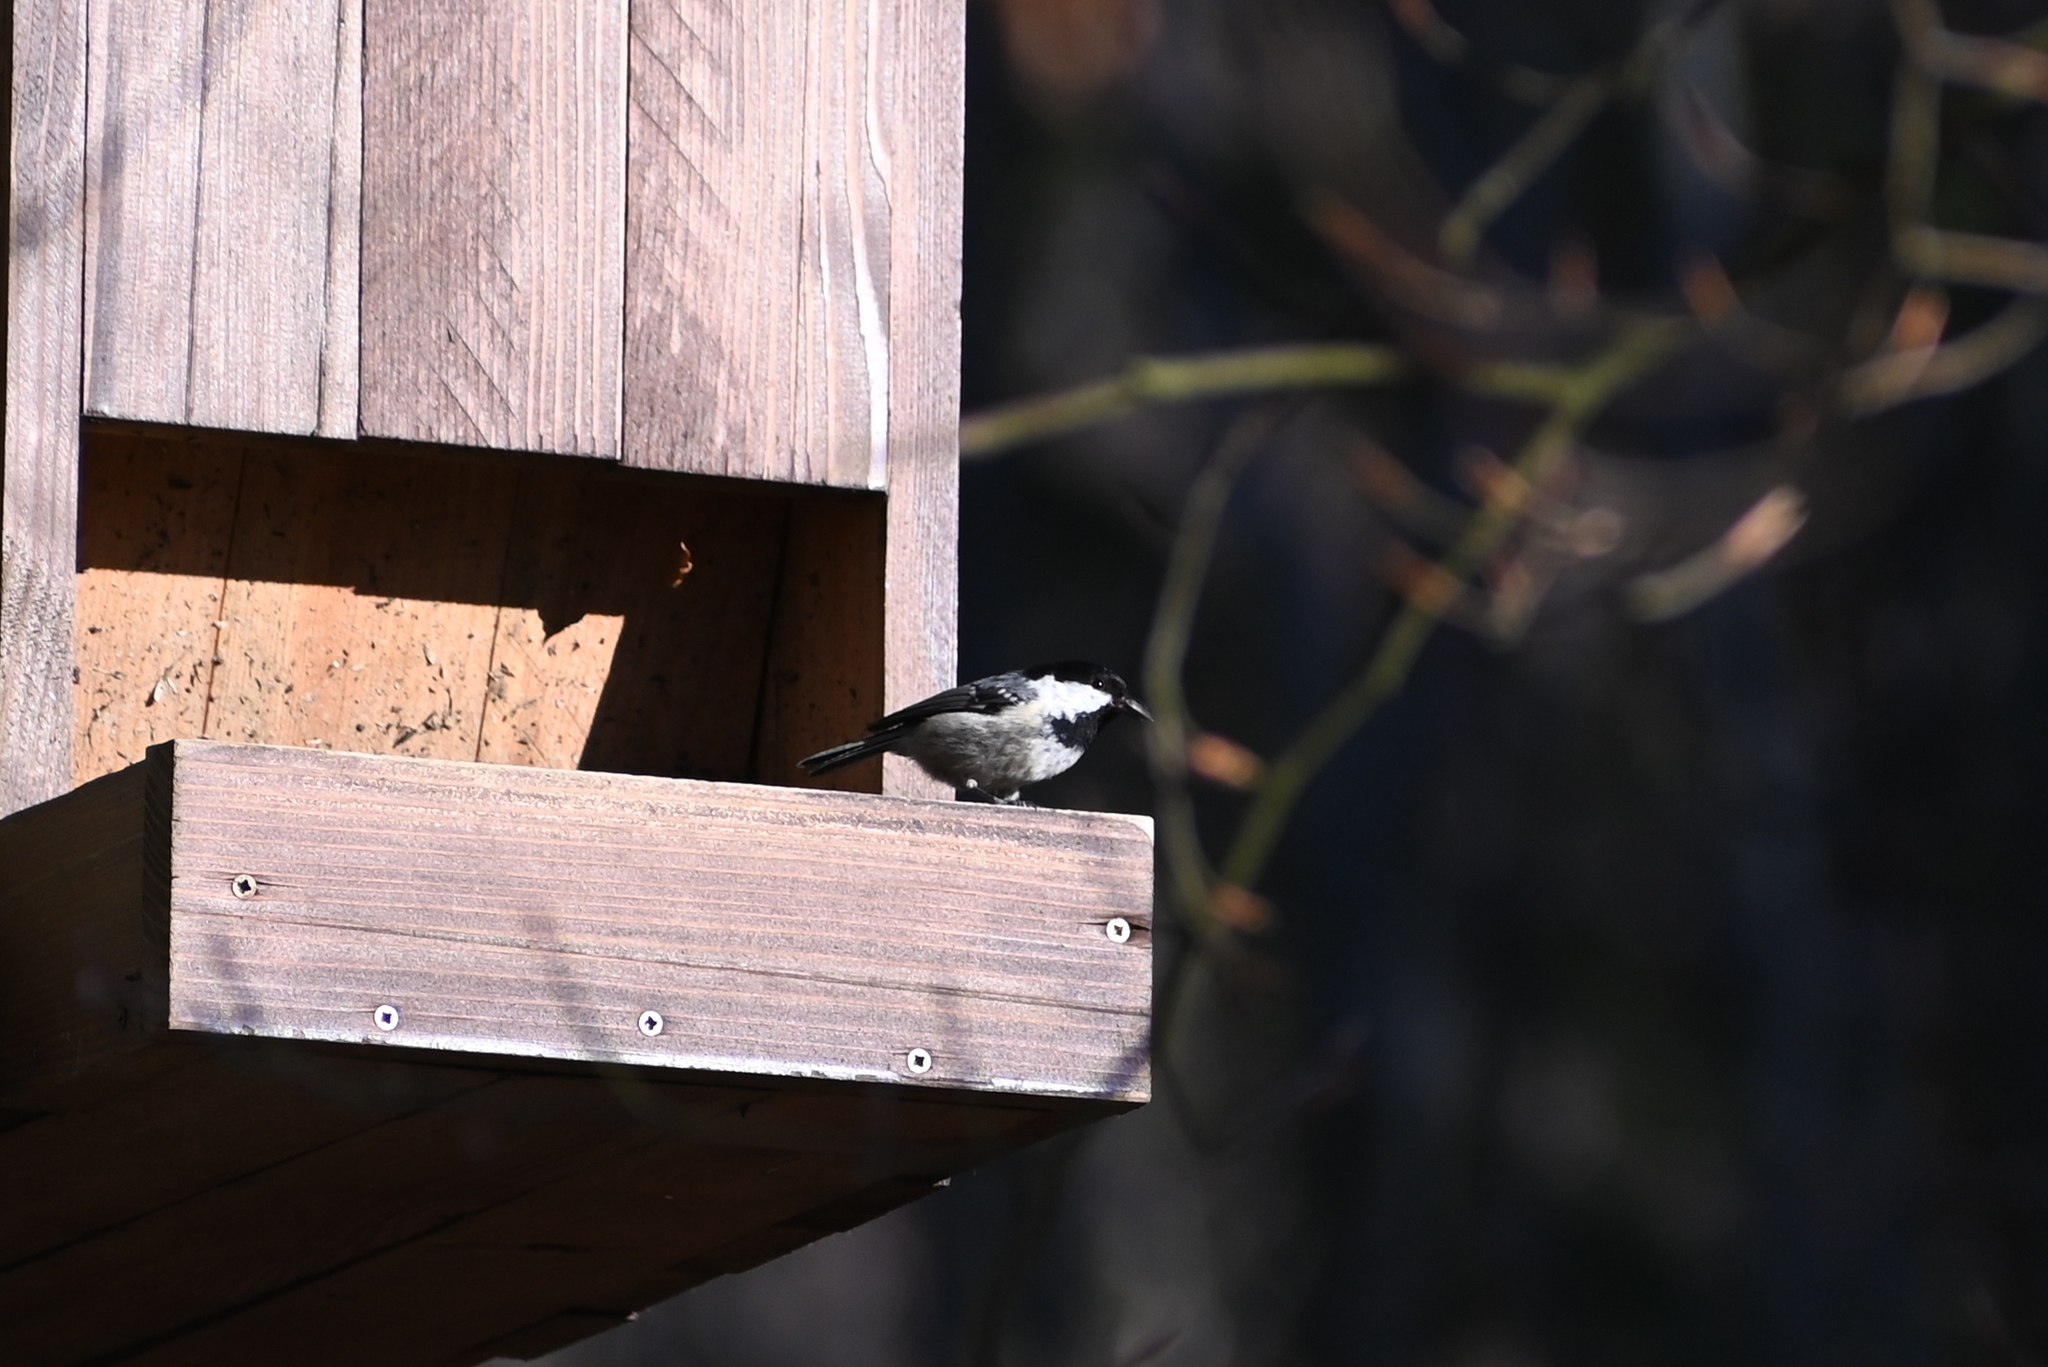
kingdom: Animalia
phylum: Chordata
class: Aves
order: Passeriformes
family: Paridae
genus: Periparus
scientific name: Periparus ater
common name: Coal tit
